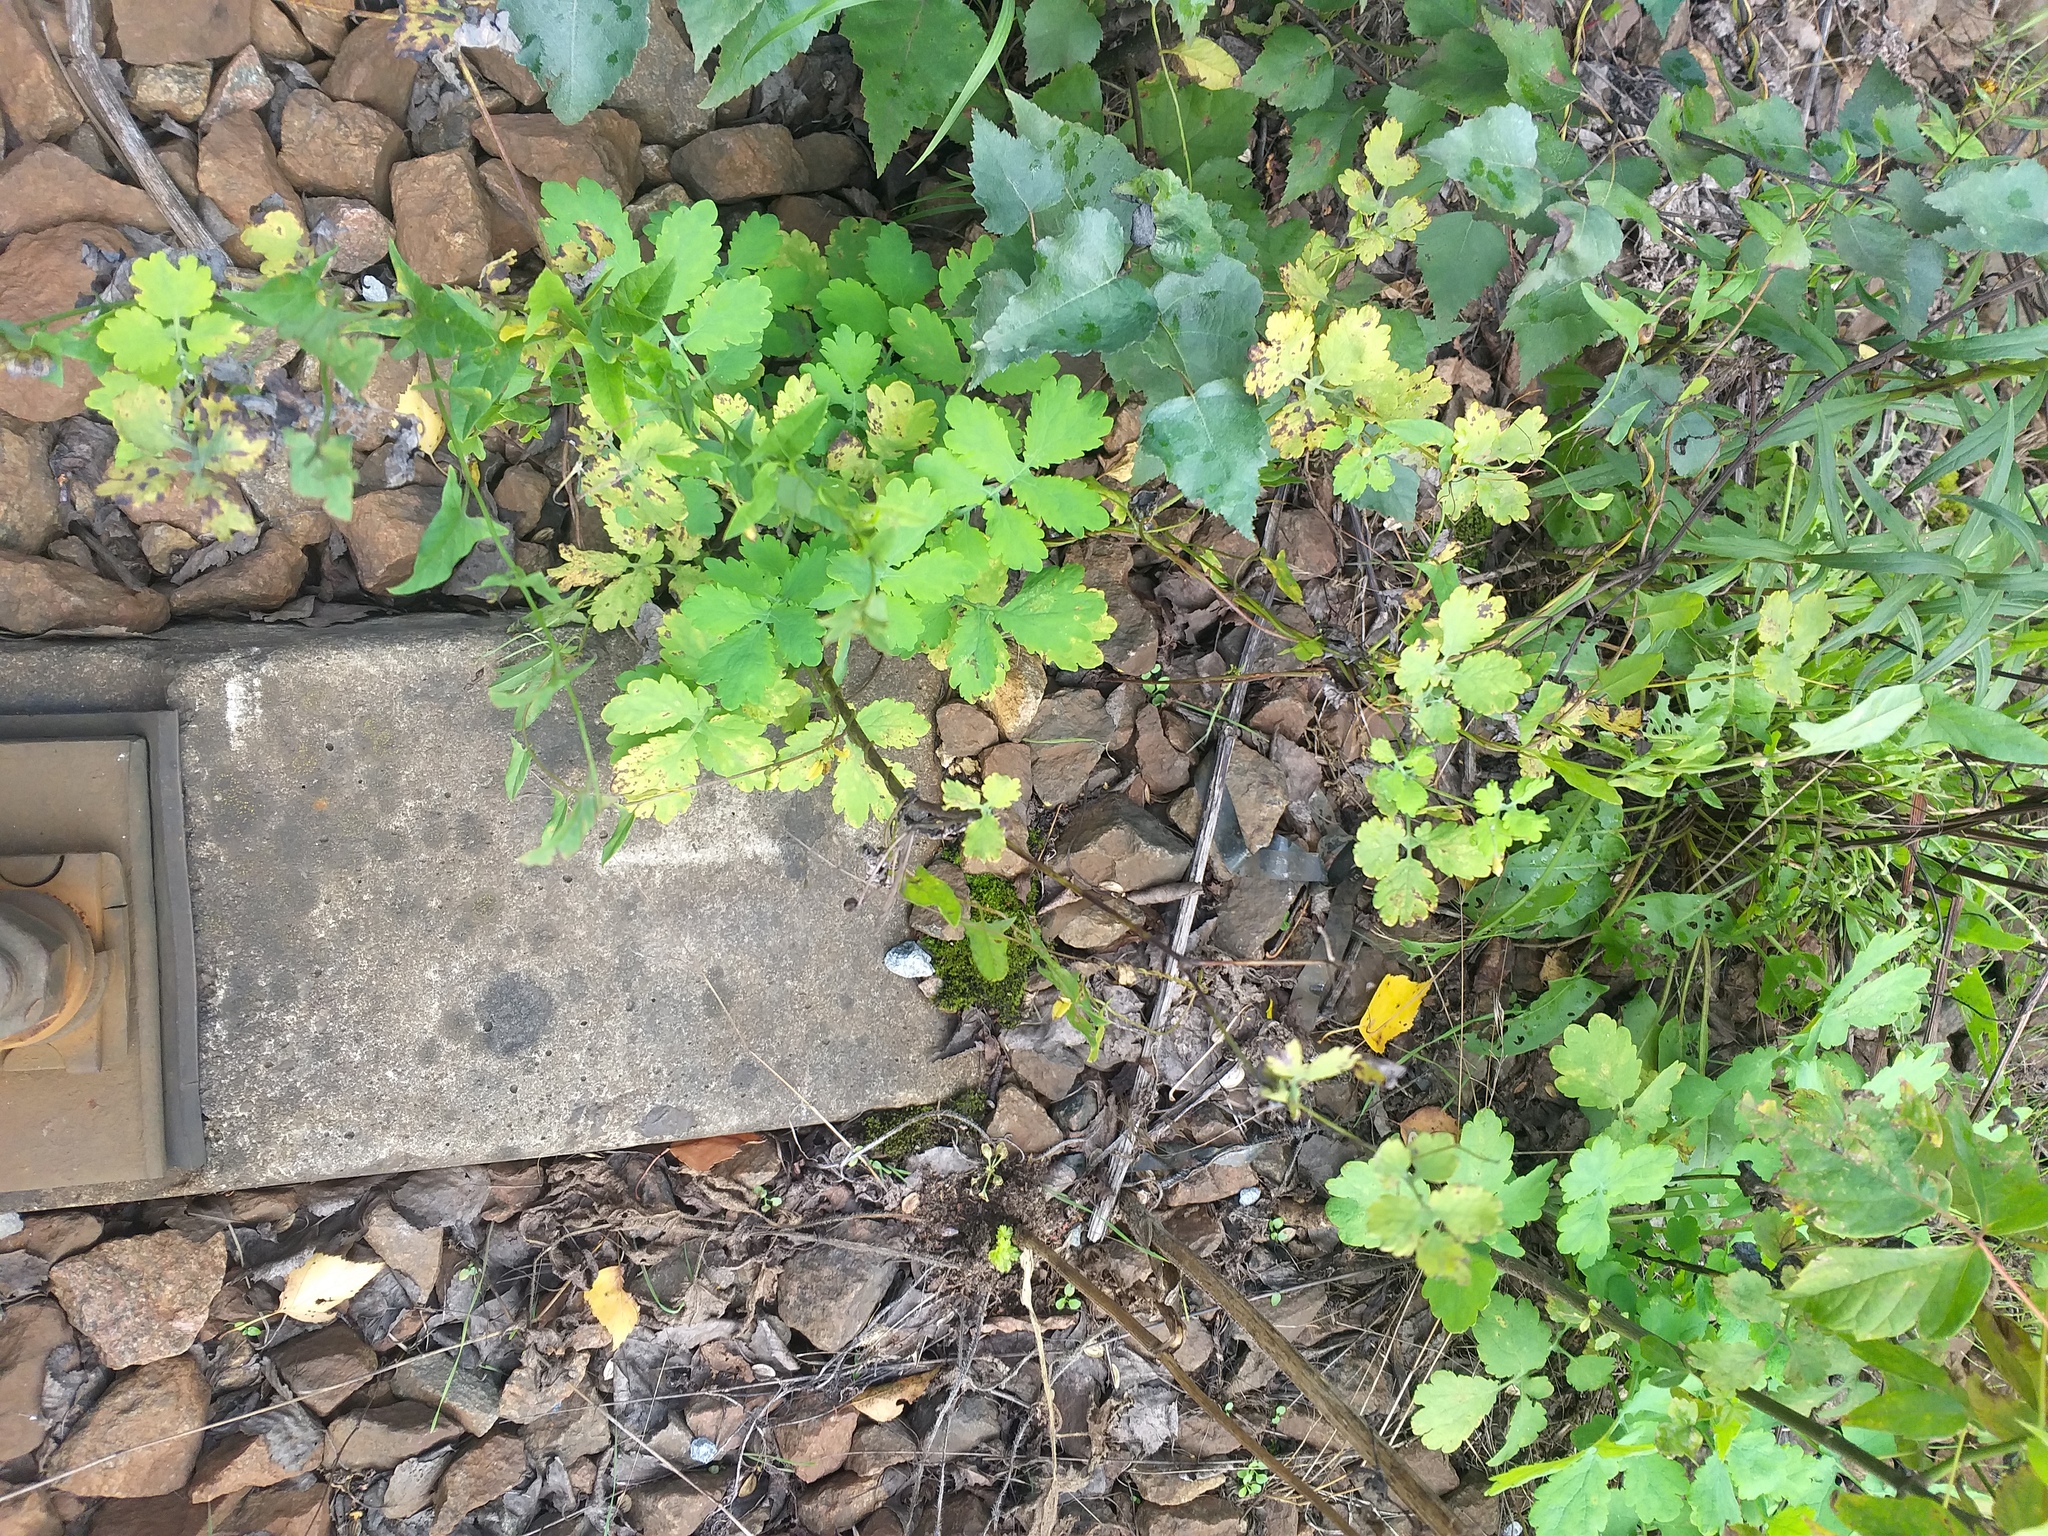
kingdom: Plantae
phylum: Tracheophyta
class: Magnoliopsida
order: Ranunculales
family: Papaveraceae
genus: Chelidonium
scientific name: Chelidonium majus
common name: Greater celandine
